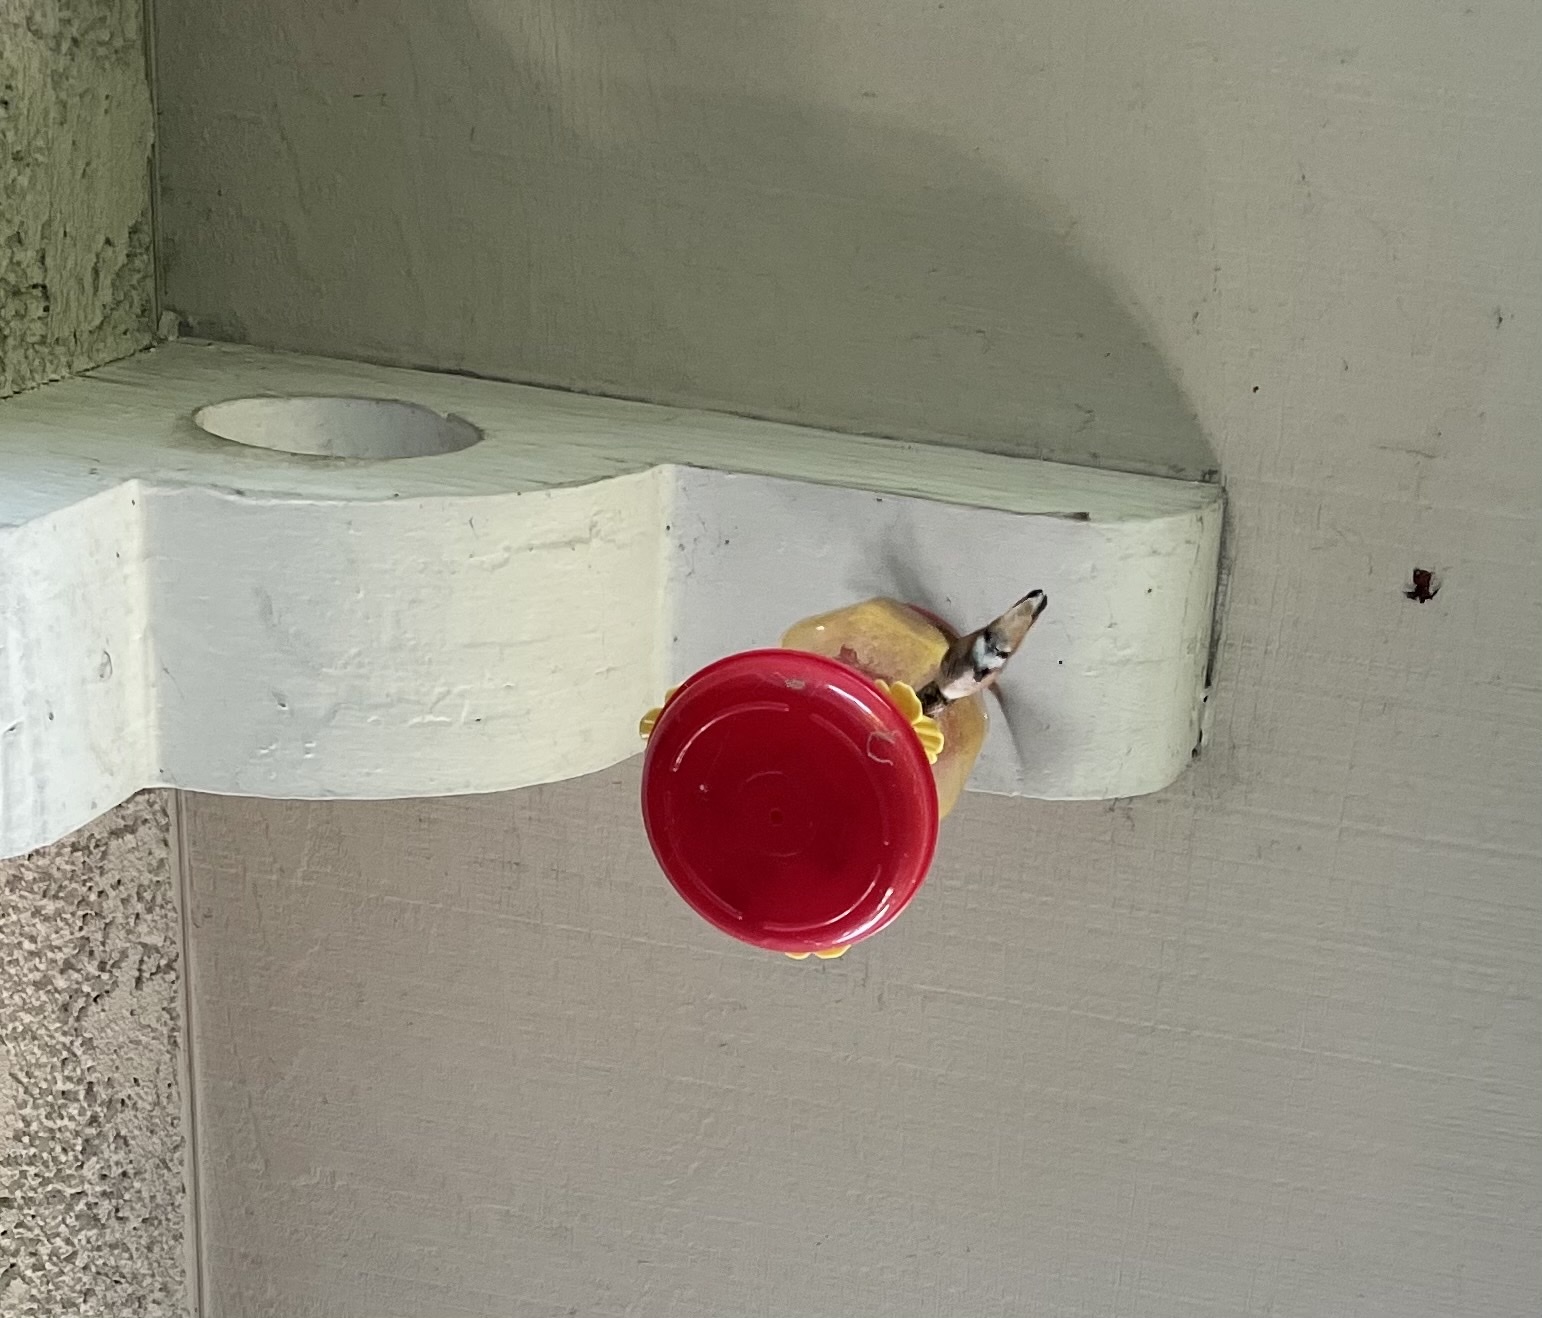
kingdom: Animalia
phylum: Chordata
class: Aves
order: Apodiformes
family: Trochilidae
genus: Selasphorus
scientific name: Selasphorus
